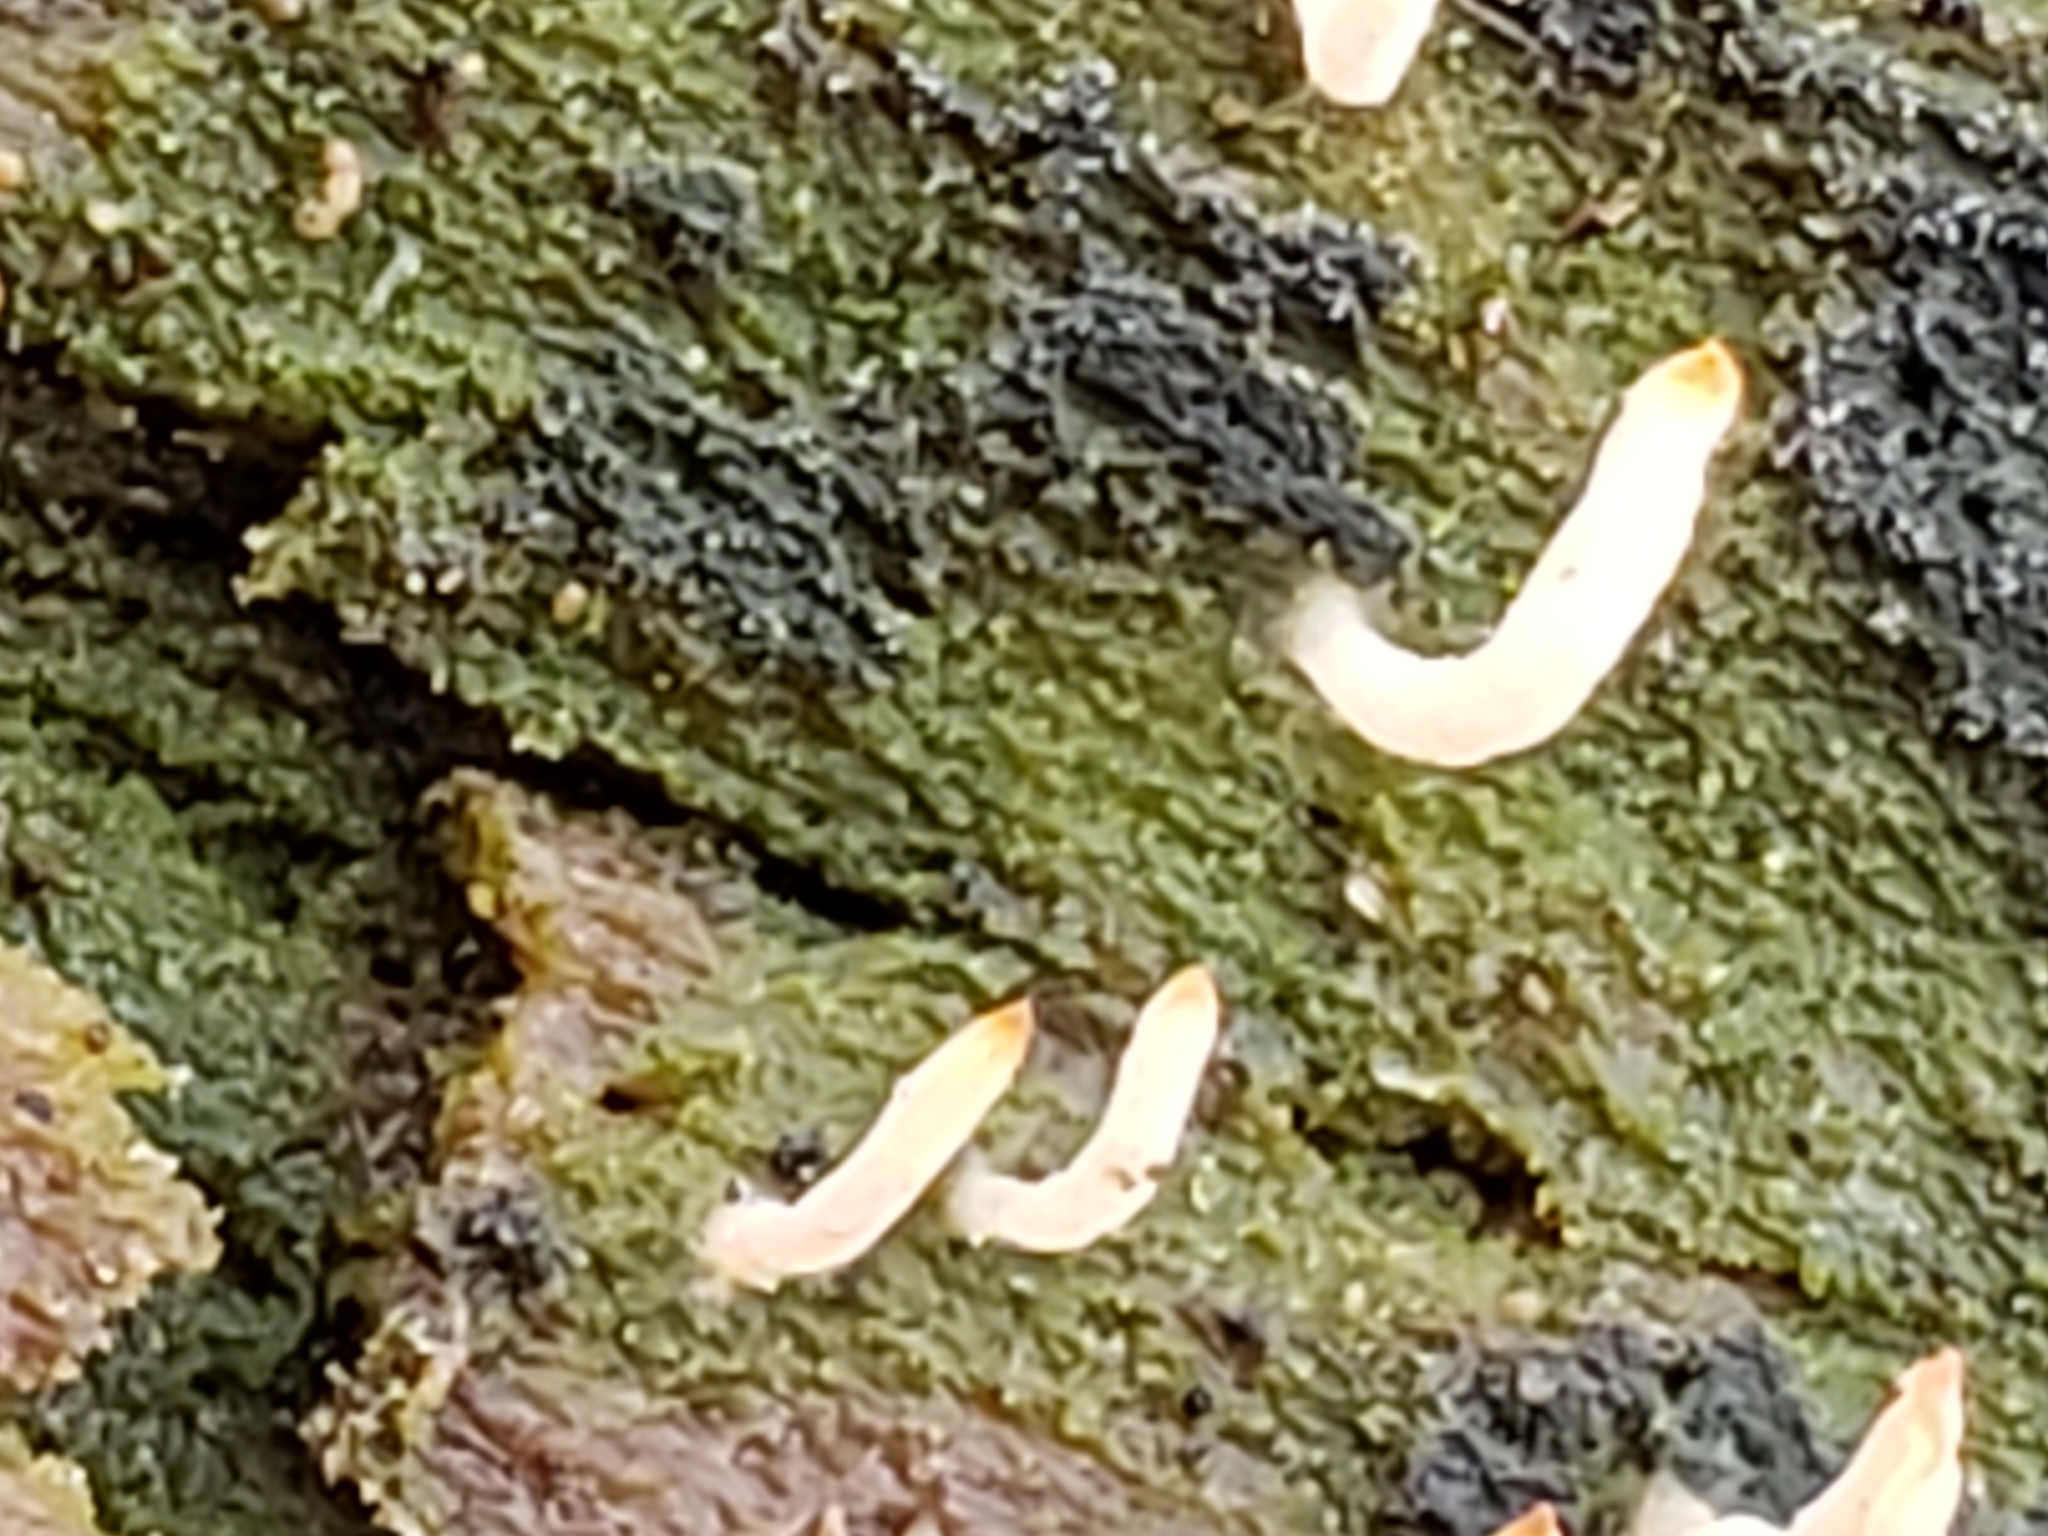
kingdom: Fungi
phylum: Basidiomycota
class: Agaricomycetes
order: Cantharellales
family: Hydnaceae
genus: Multiclavula
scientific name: Multiclavula mucida
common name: White green-algae coral
